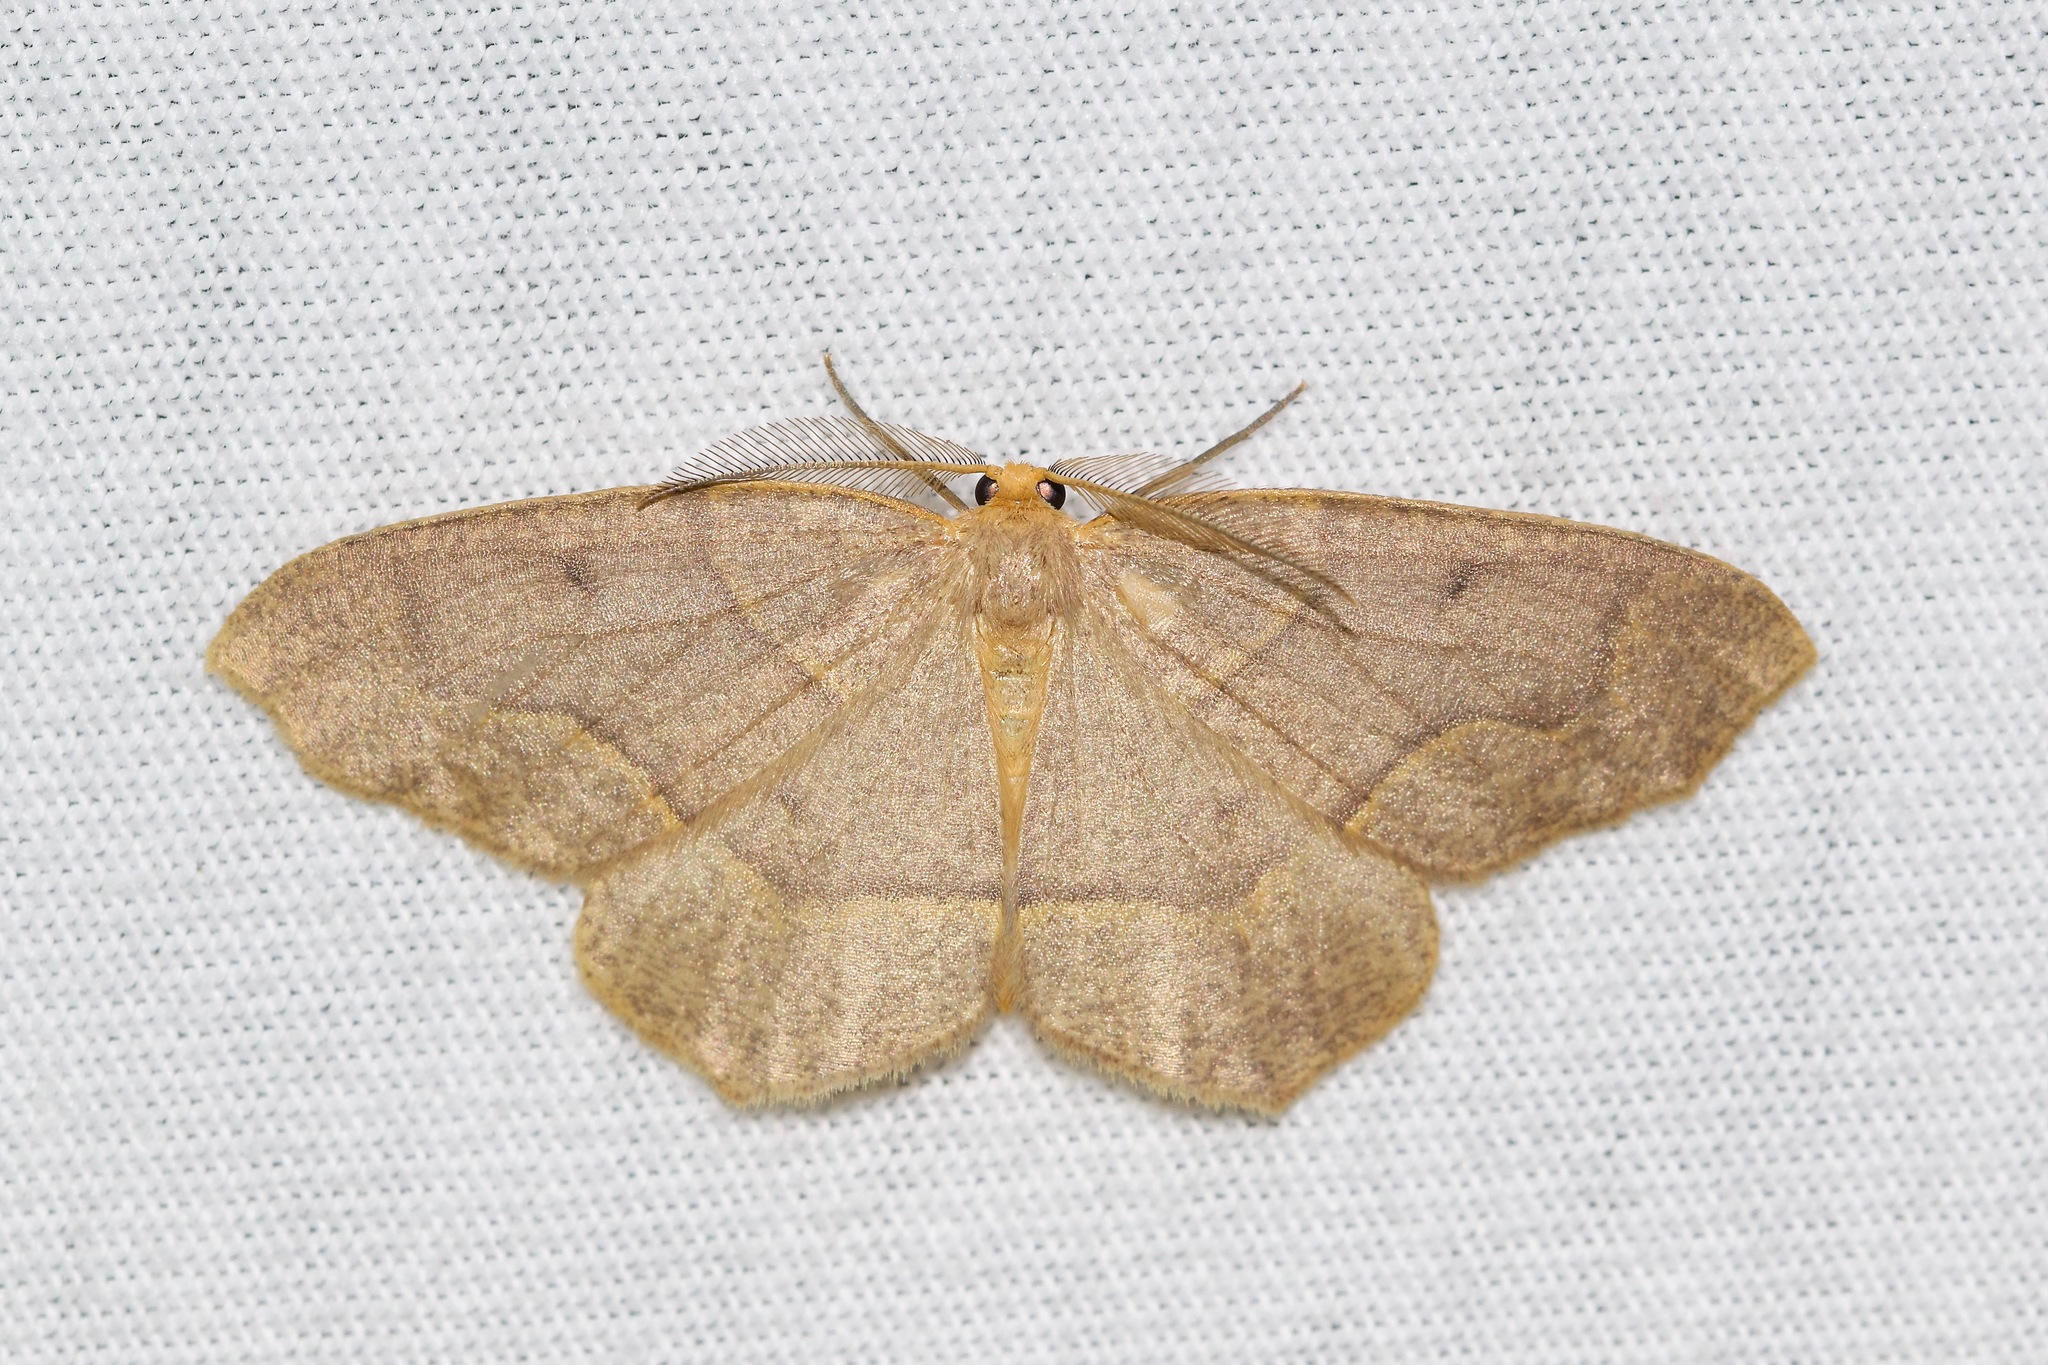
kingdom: Animalia
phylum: Arthropoda
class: Insecta
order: Lepidoptera
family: Geometridae
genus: Lambdina
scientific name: Lambdina fiscellaria
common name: Hemlock looper
